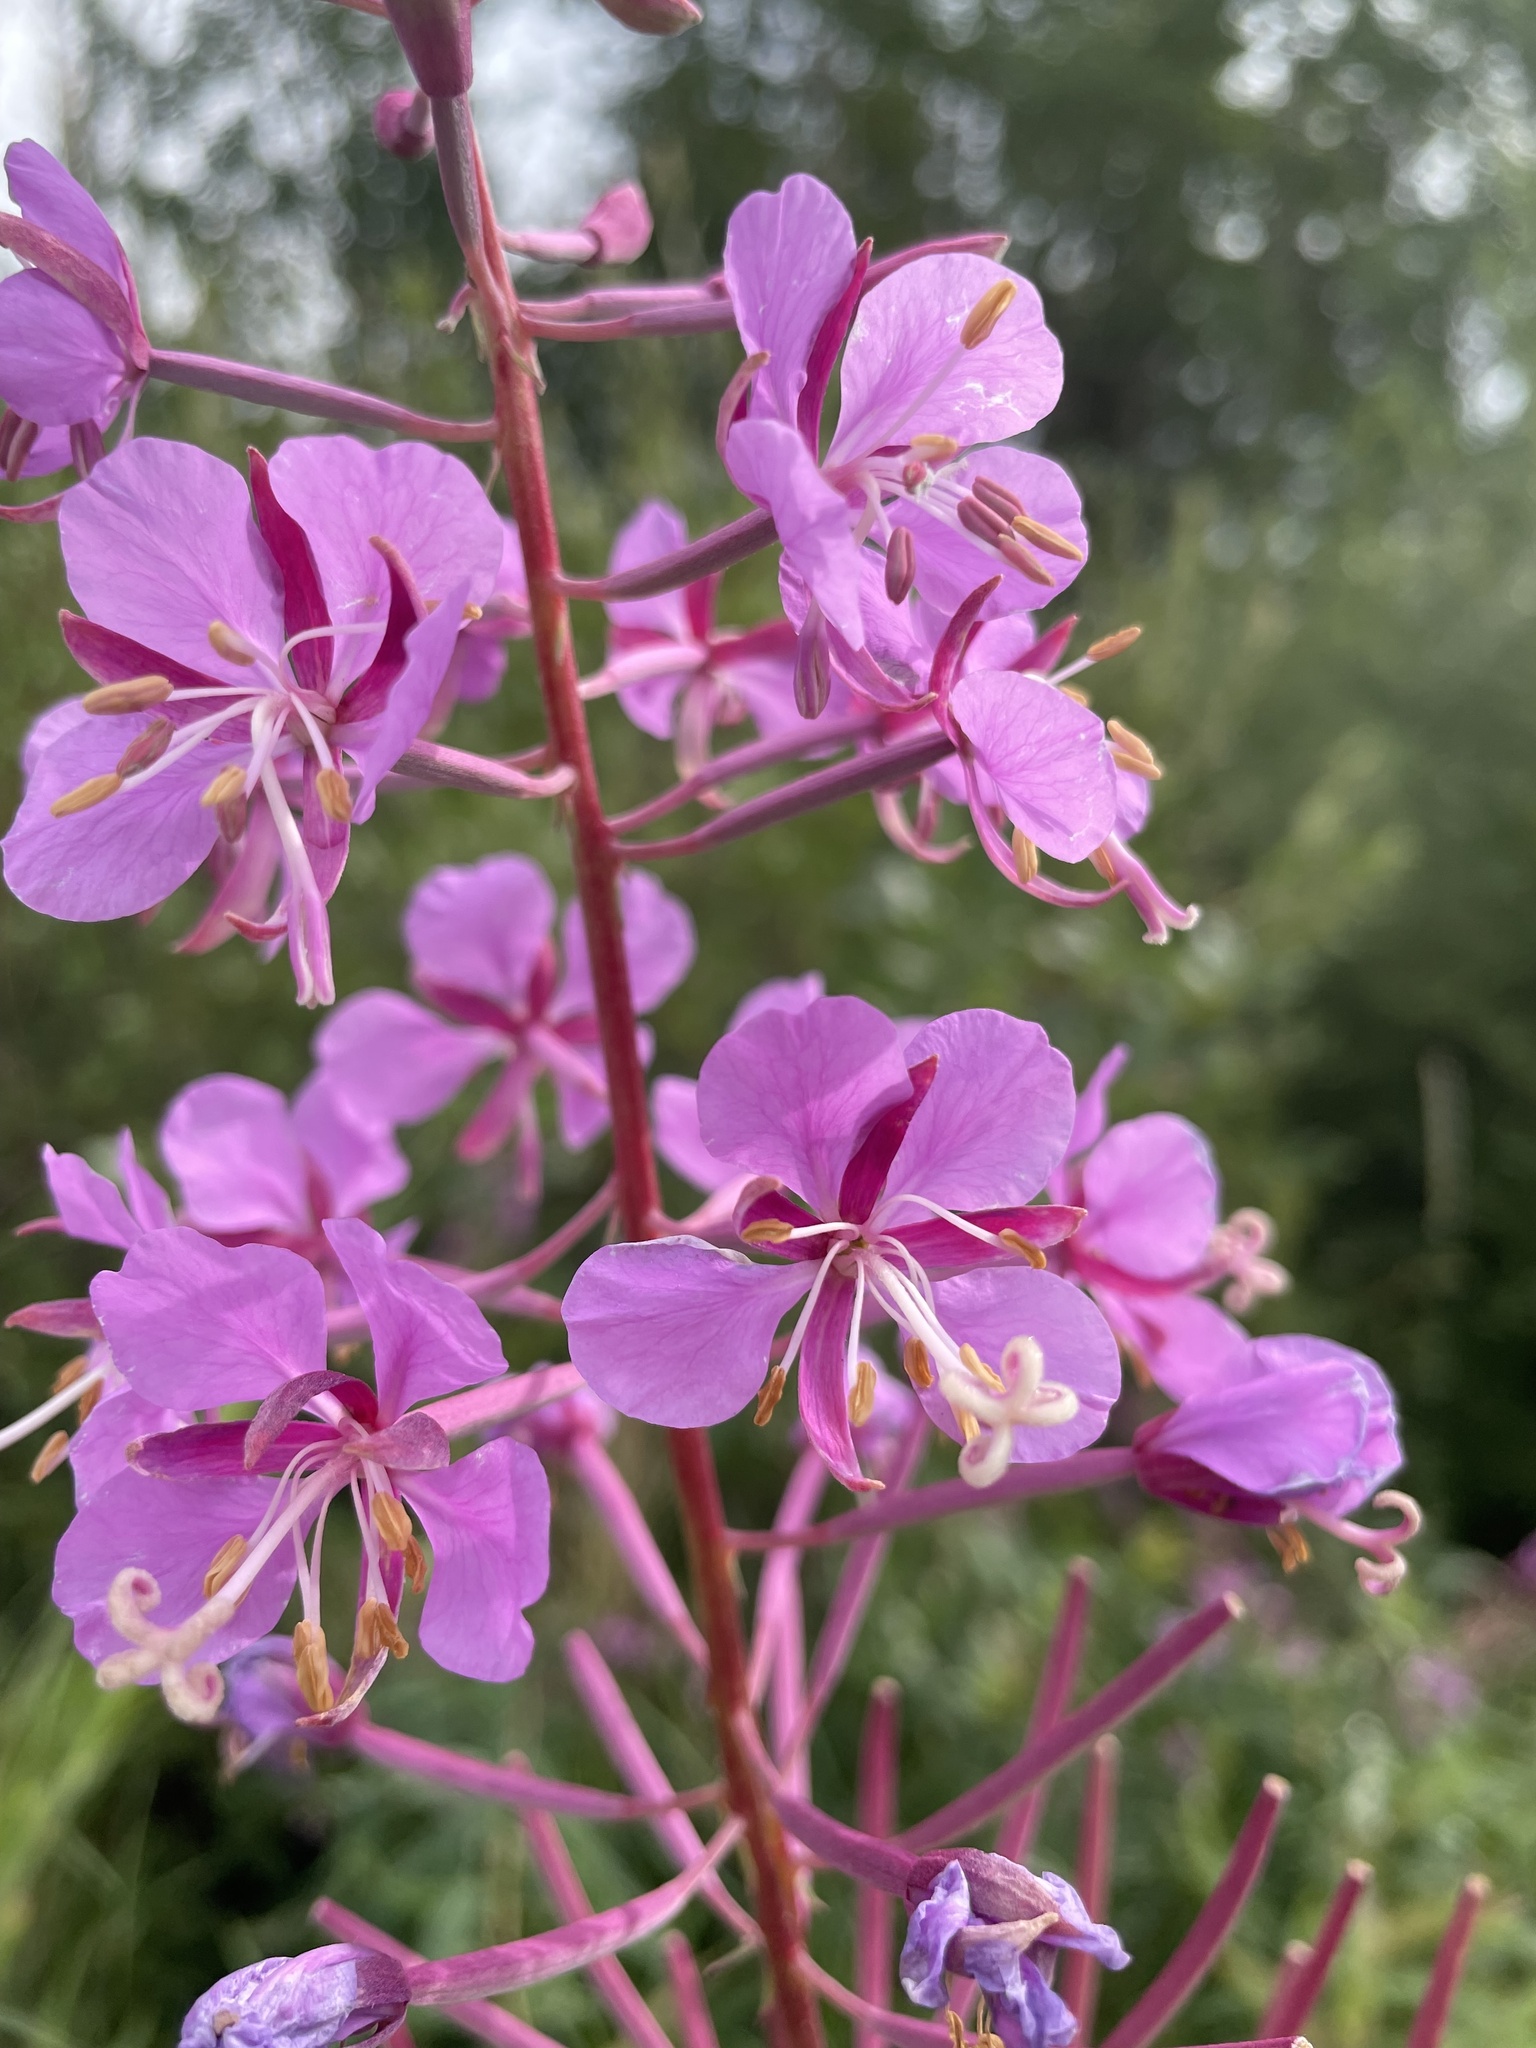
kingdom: Plantae
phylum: Tracheophyta
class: Magnoliopsida
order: Myrtales
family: Onagraceae
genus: Chamaenerion
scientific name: Chamaenerion angustifolium
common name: Fireweed
